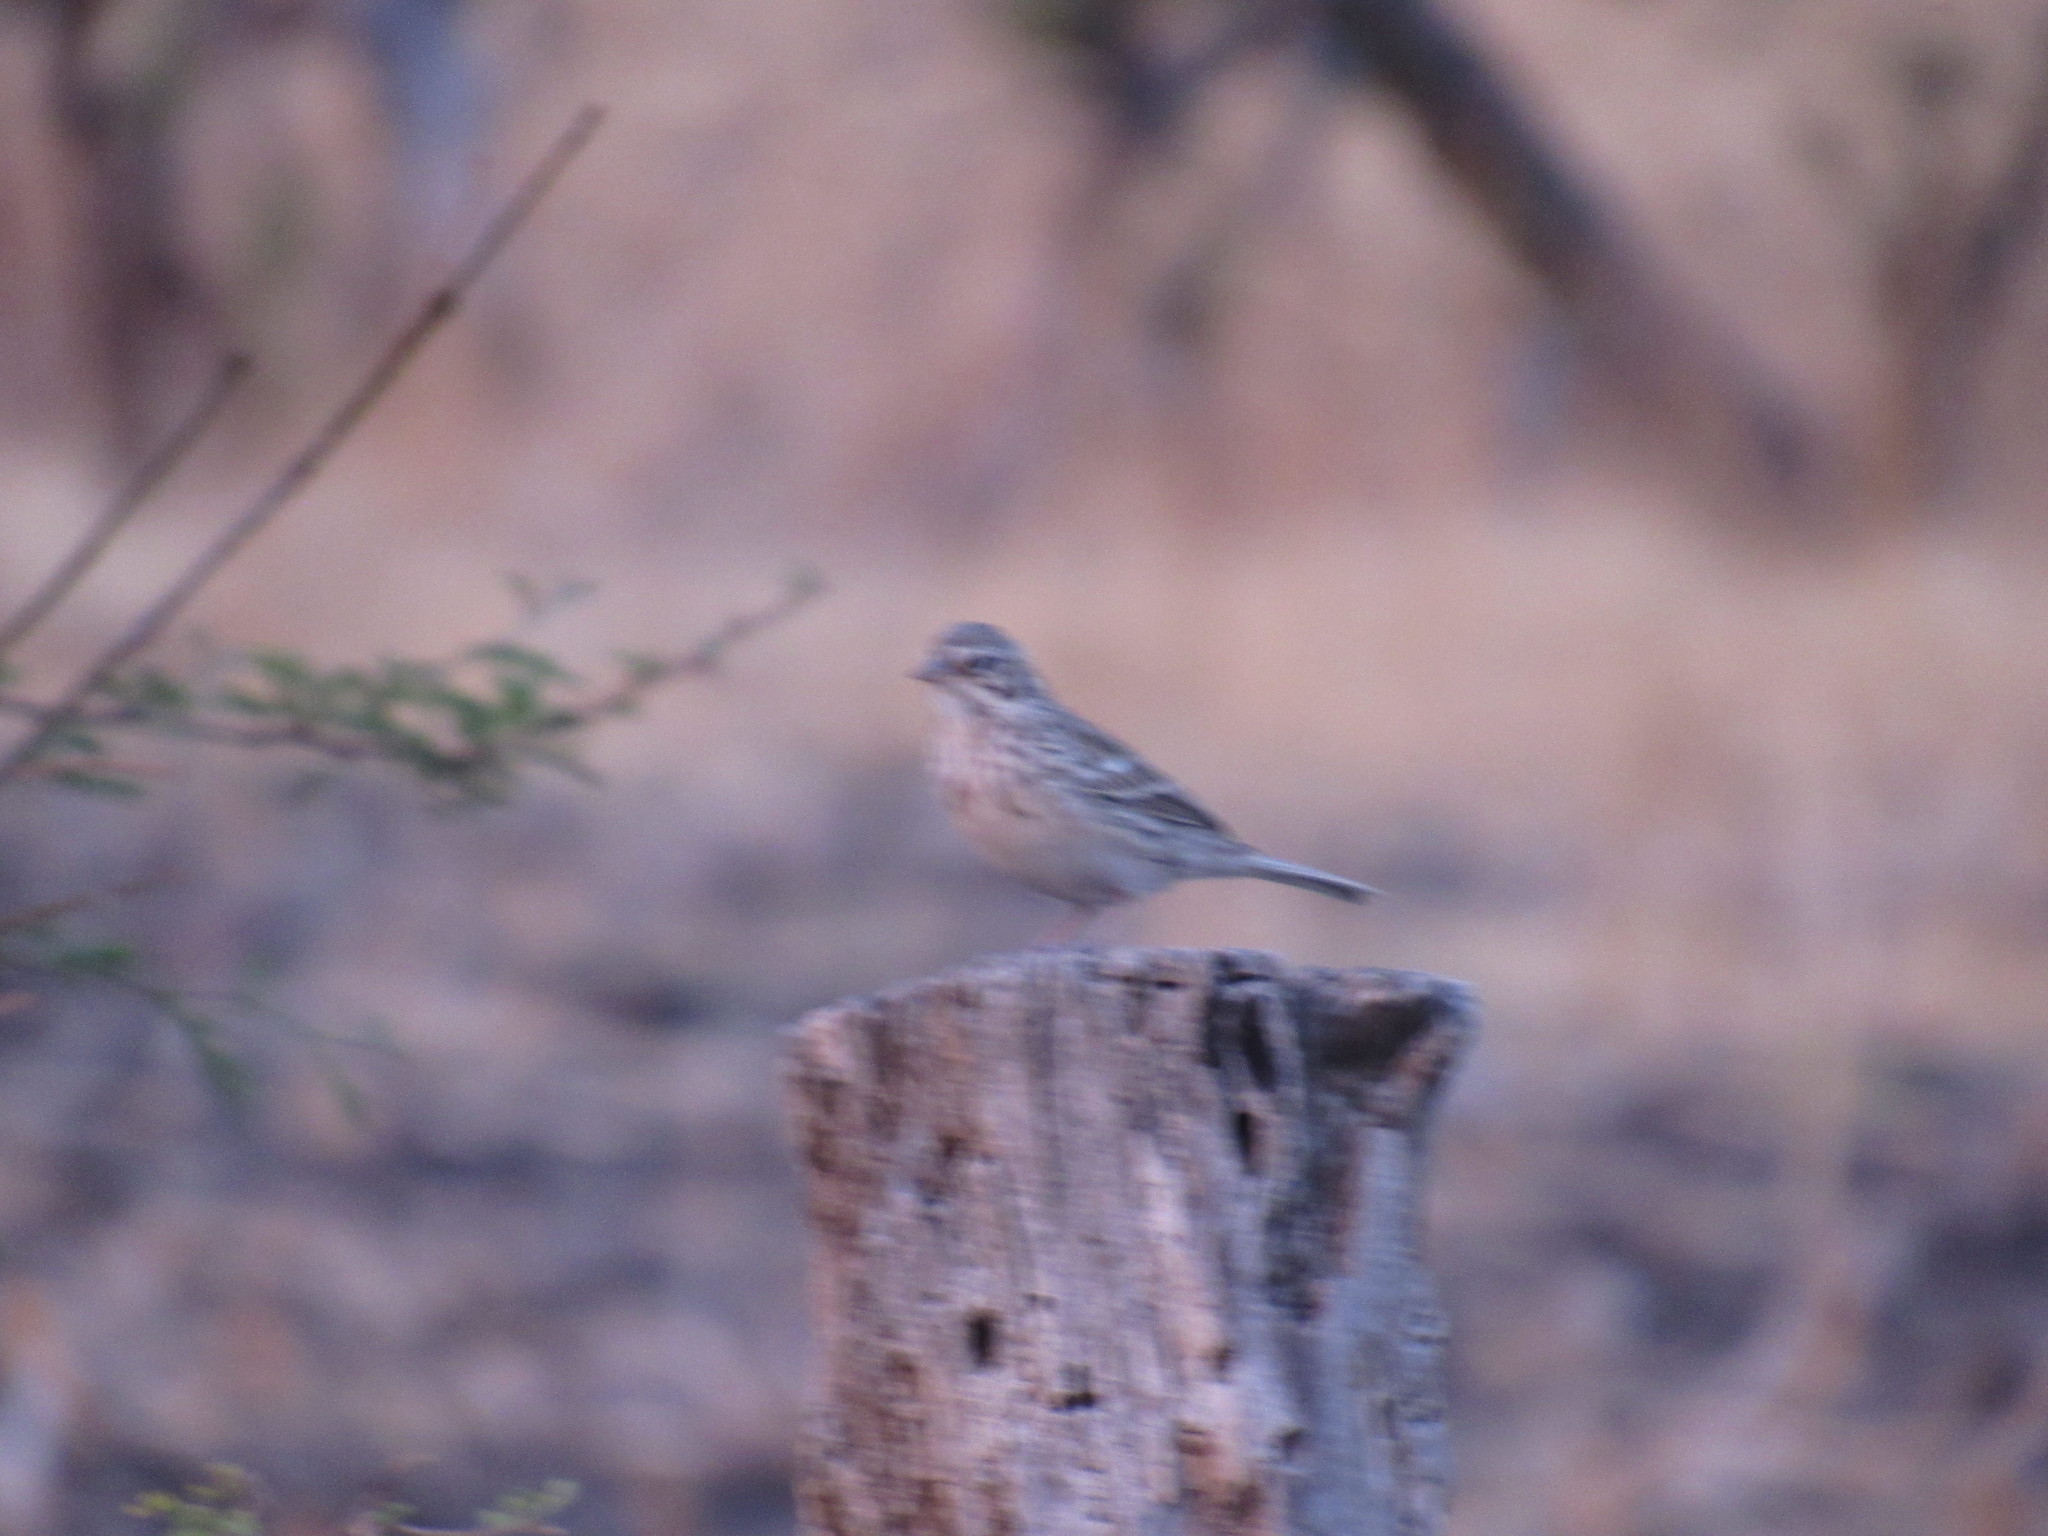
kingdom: Animalia
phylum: Chordata
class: Aves
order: Passeriformes
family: Passerellidae
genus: Pooecetes
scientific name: Pooecetes gramineus
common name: Vesper sparrow
